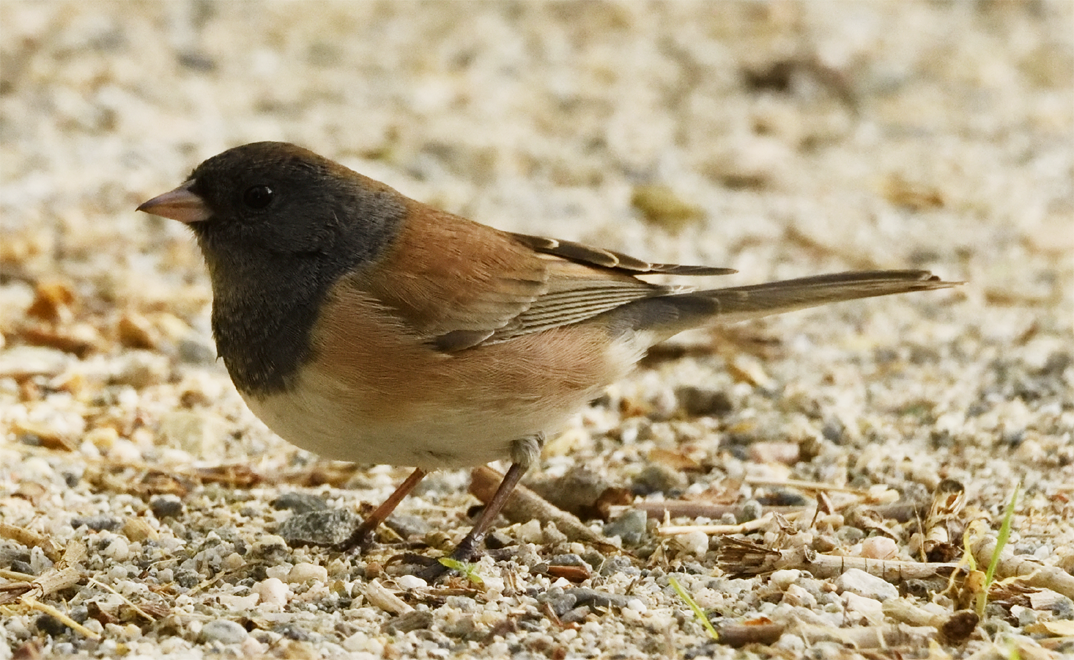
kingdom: Animalia
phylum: Chordata
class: Aves
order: Passeriformes
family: Passerellidae
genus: Junco
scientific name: Junco hyemalis
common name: Dark-eyed junco
